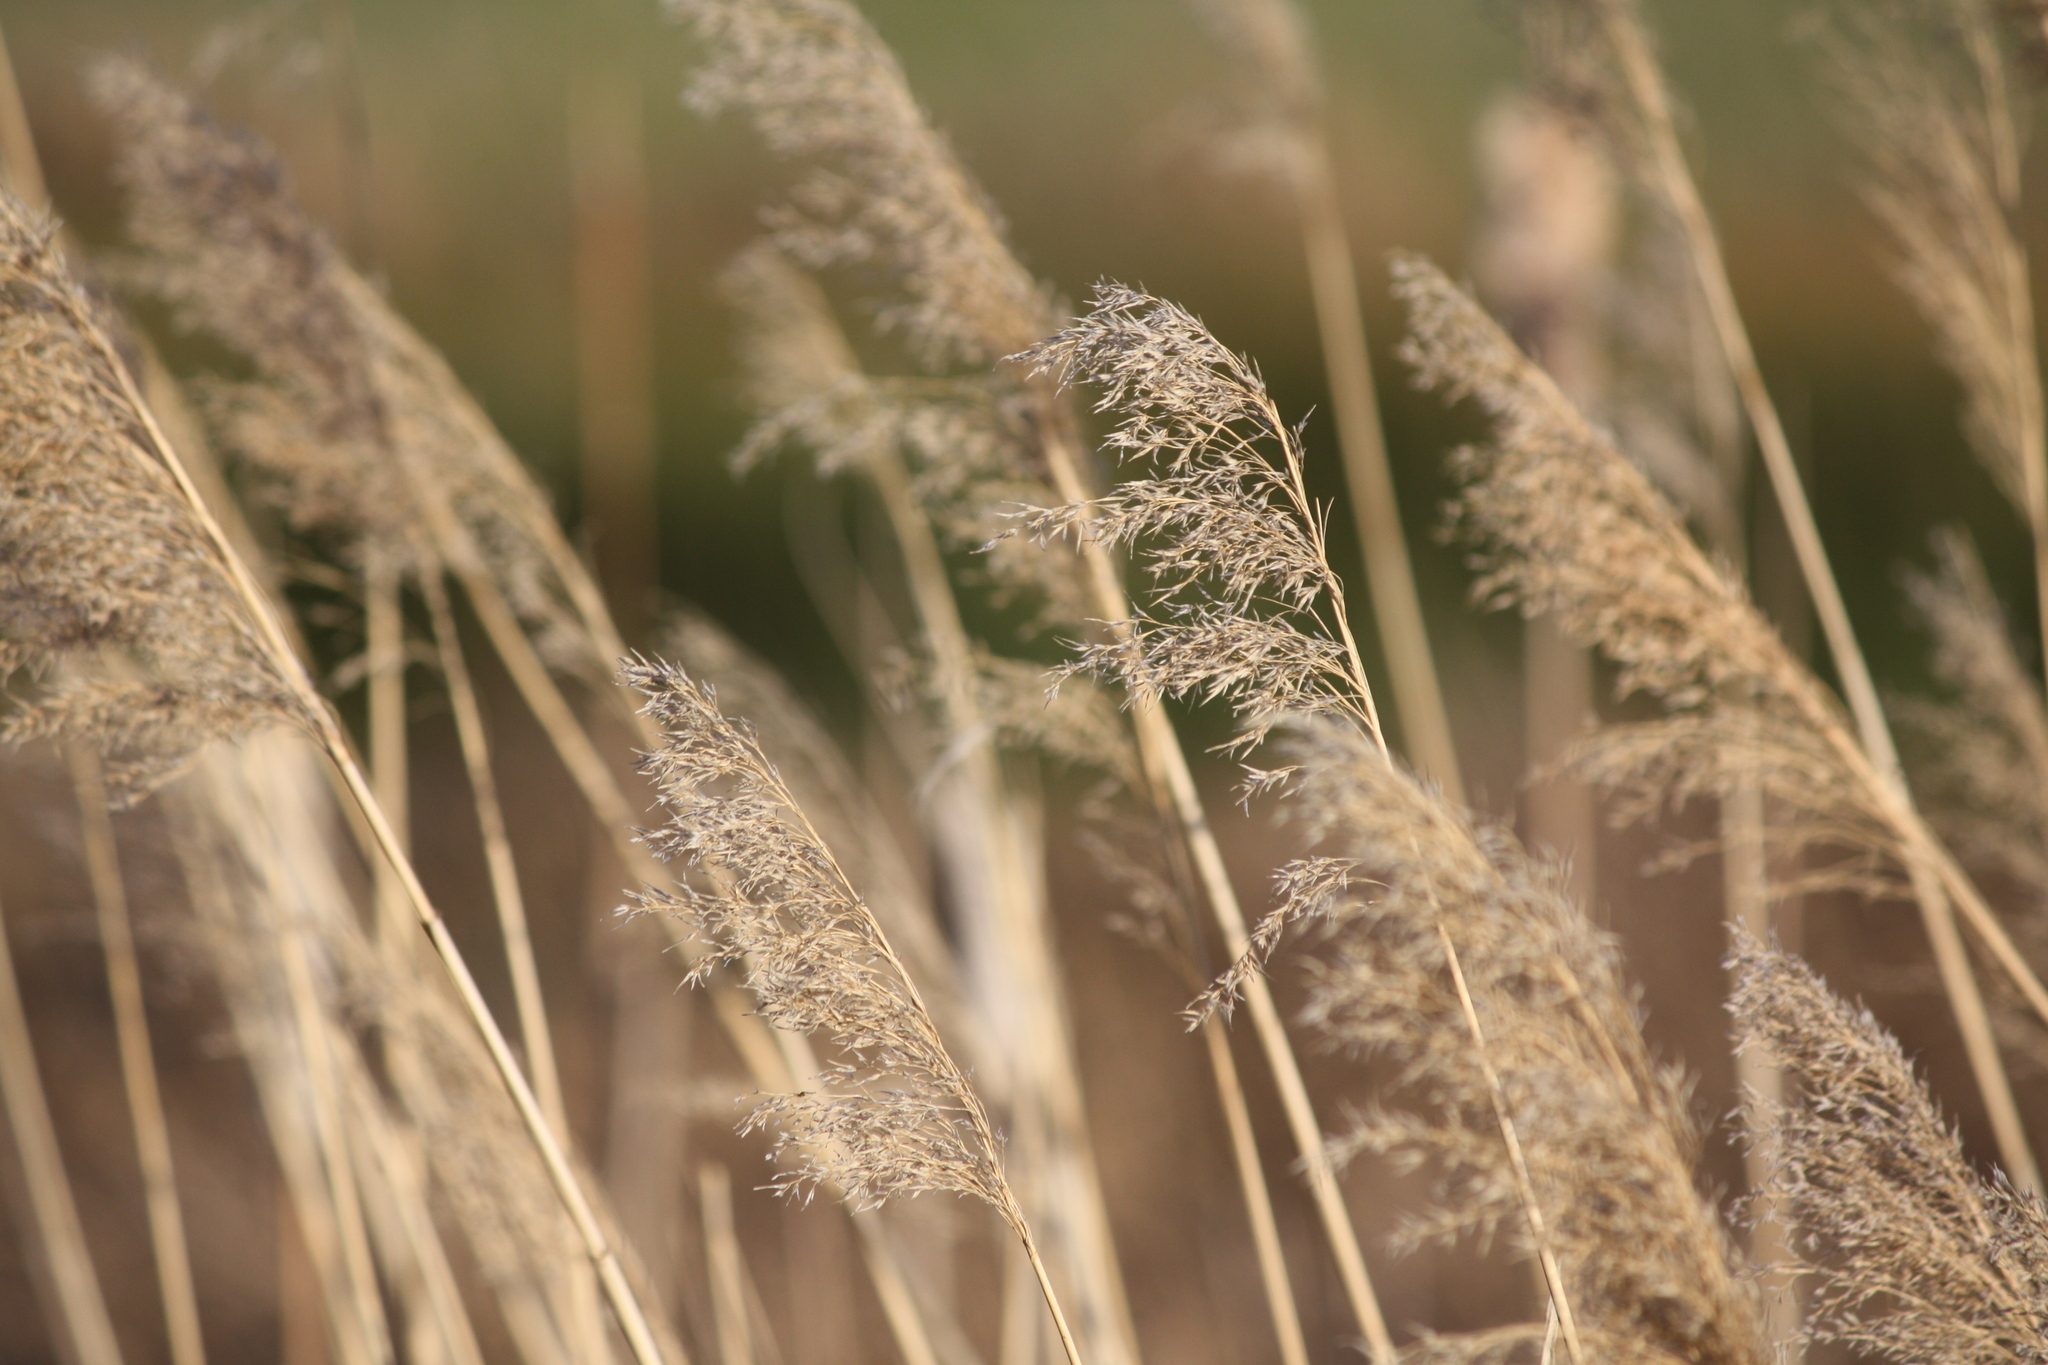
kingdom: Plantae
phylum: Tracheophyta
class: Liliopsida
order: Poales
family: Poaceae
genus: Phragmites
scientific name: Phragmites australis
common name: Common reed
